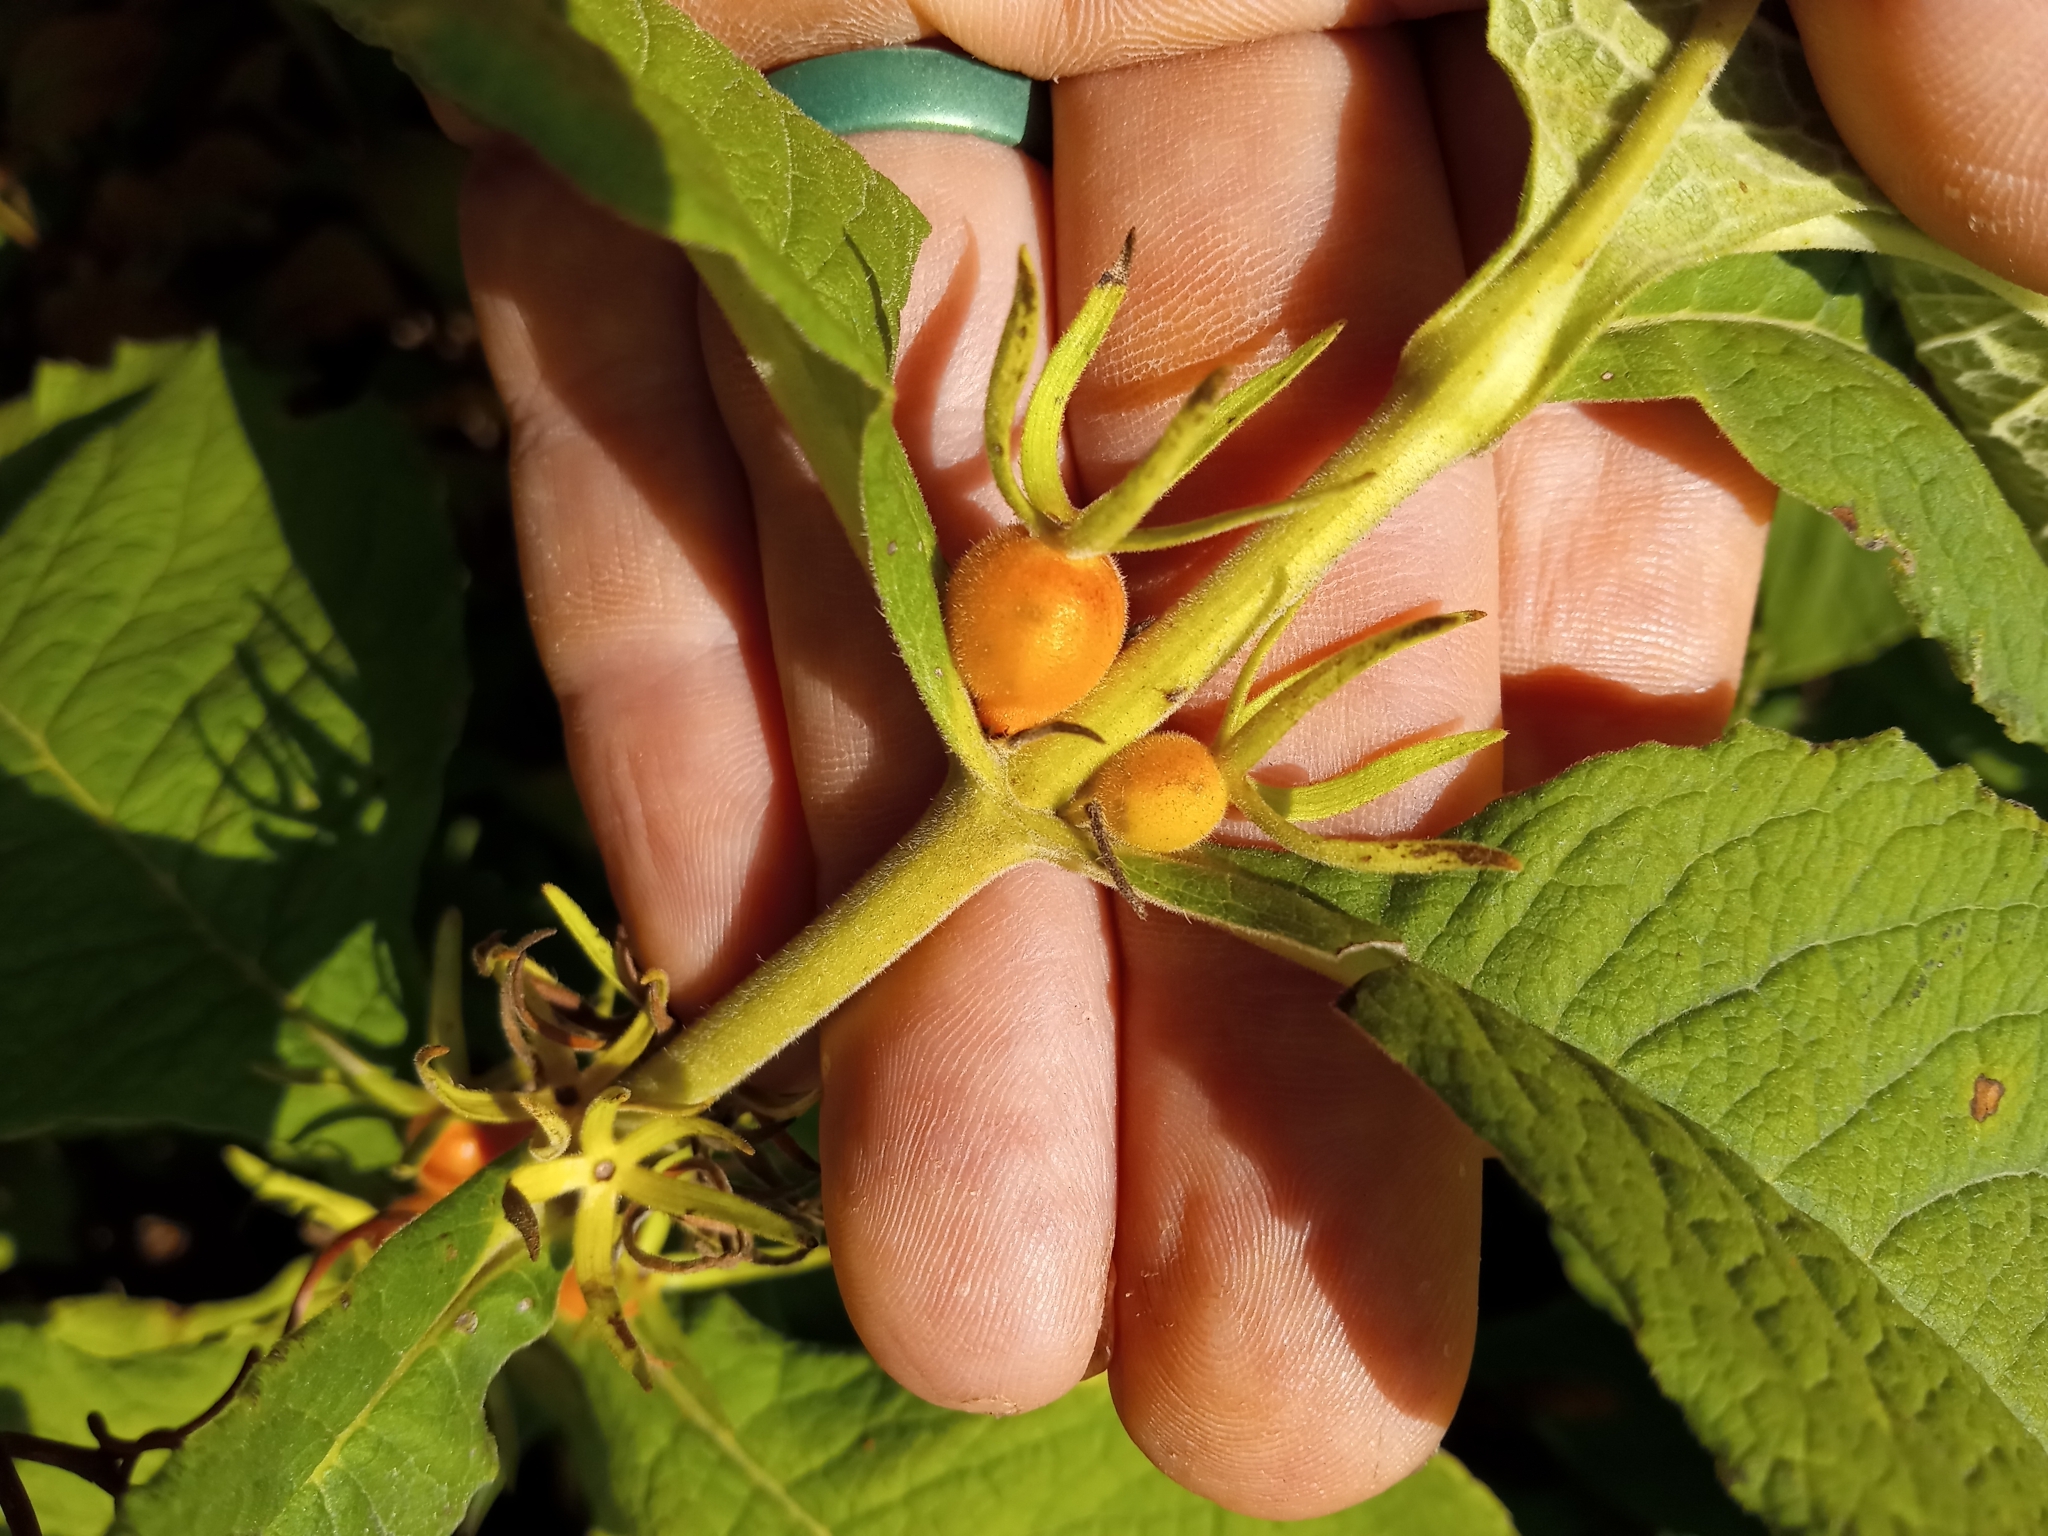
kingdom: Plantae
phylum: Tracheophyta
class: Magnoliopsida
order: Dipsacales
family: Caprifoliaceae
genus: Triosteum
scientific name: Triosteum aurantiacum
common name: Coffee tinker's-weed
